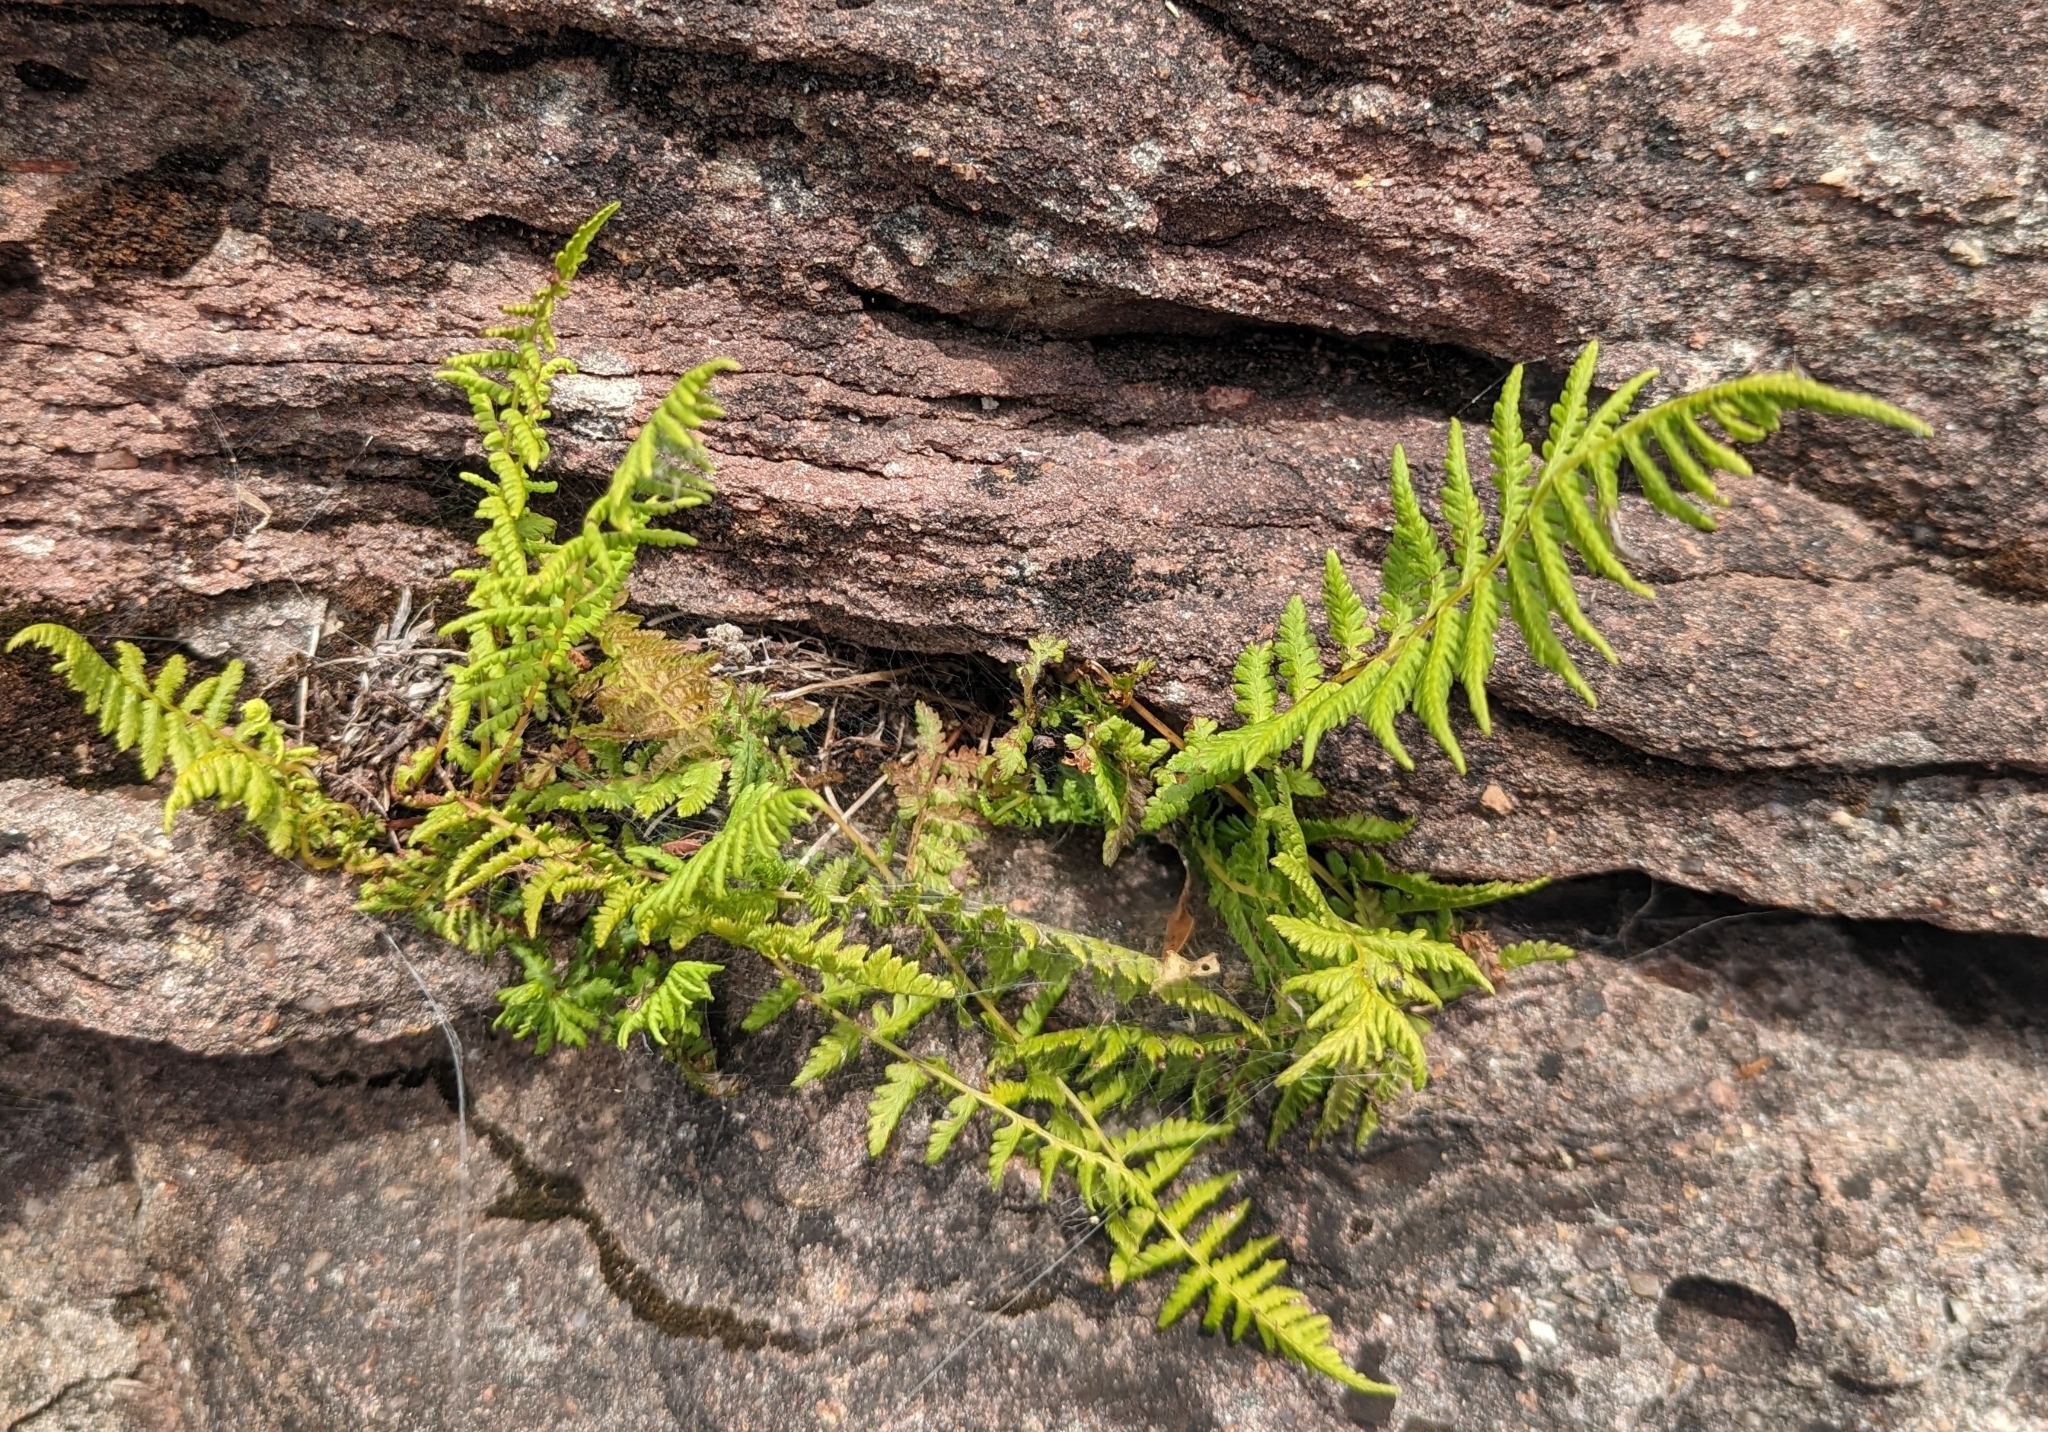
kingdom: Plantae
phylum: Tracheophyta
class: Polypodiopsida
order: Polypodiales
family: Athyriaceae
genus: Athyrium
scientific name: Athyrium angustum
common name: Northern lady fern
